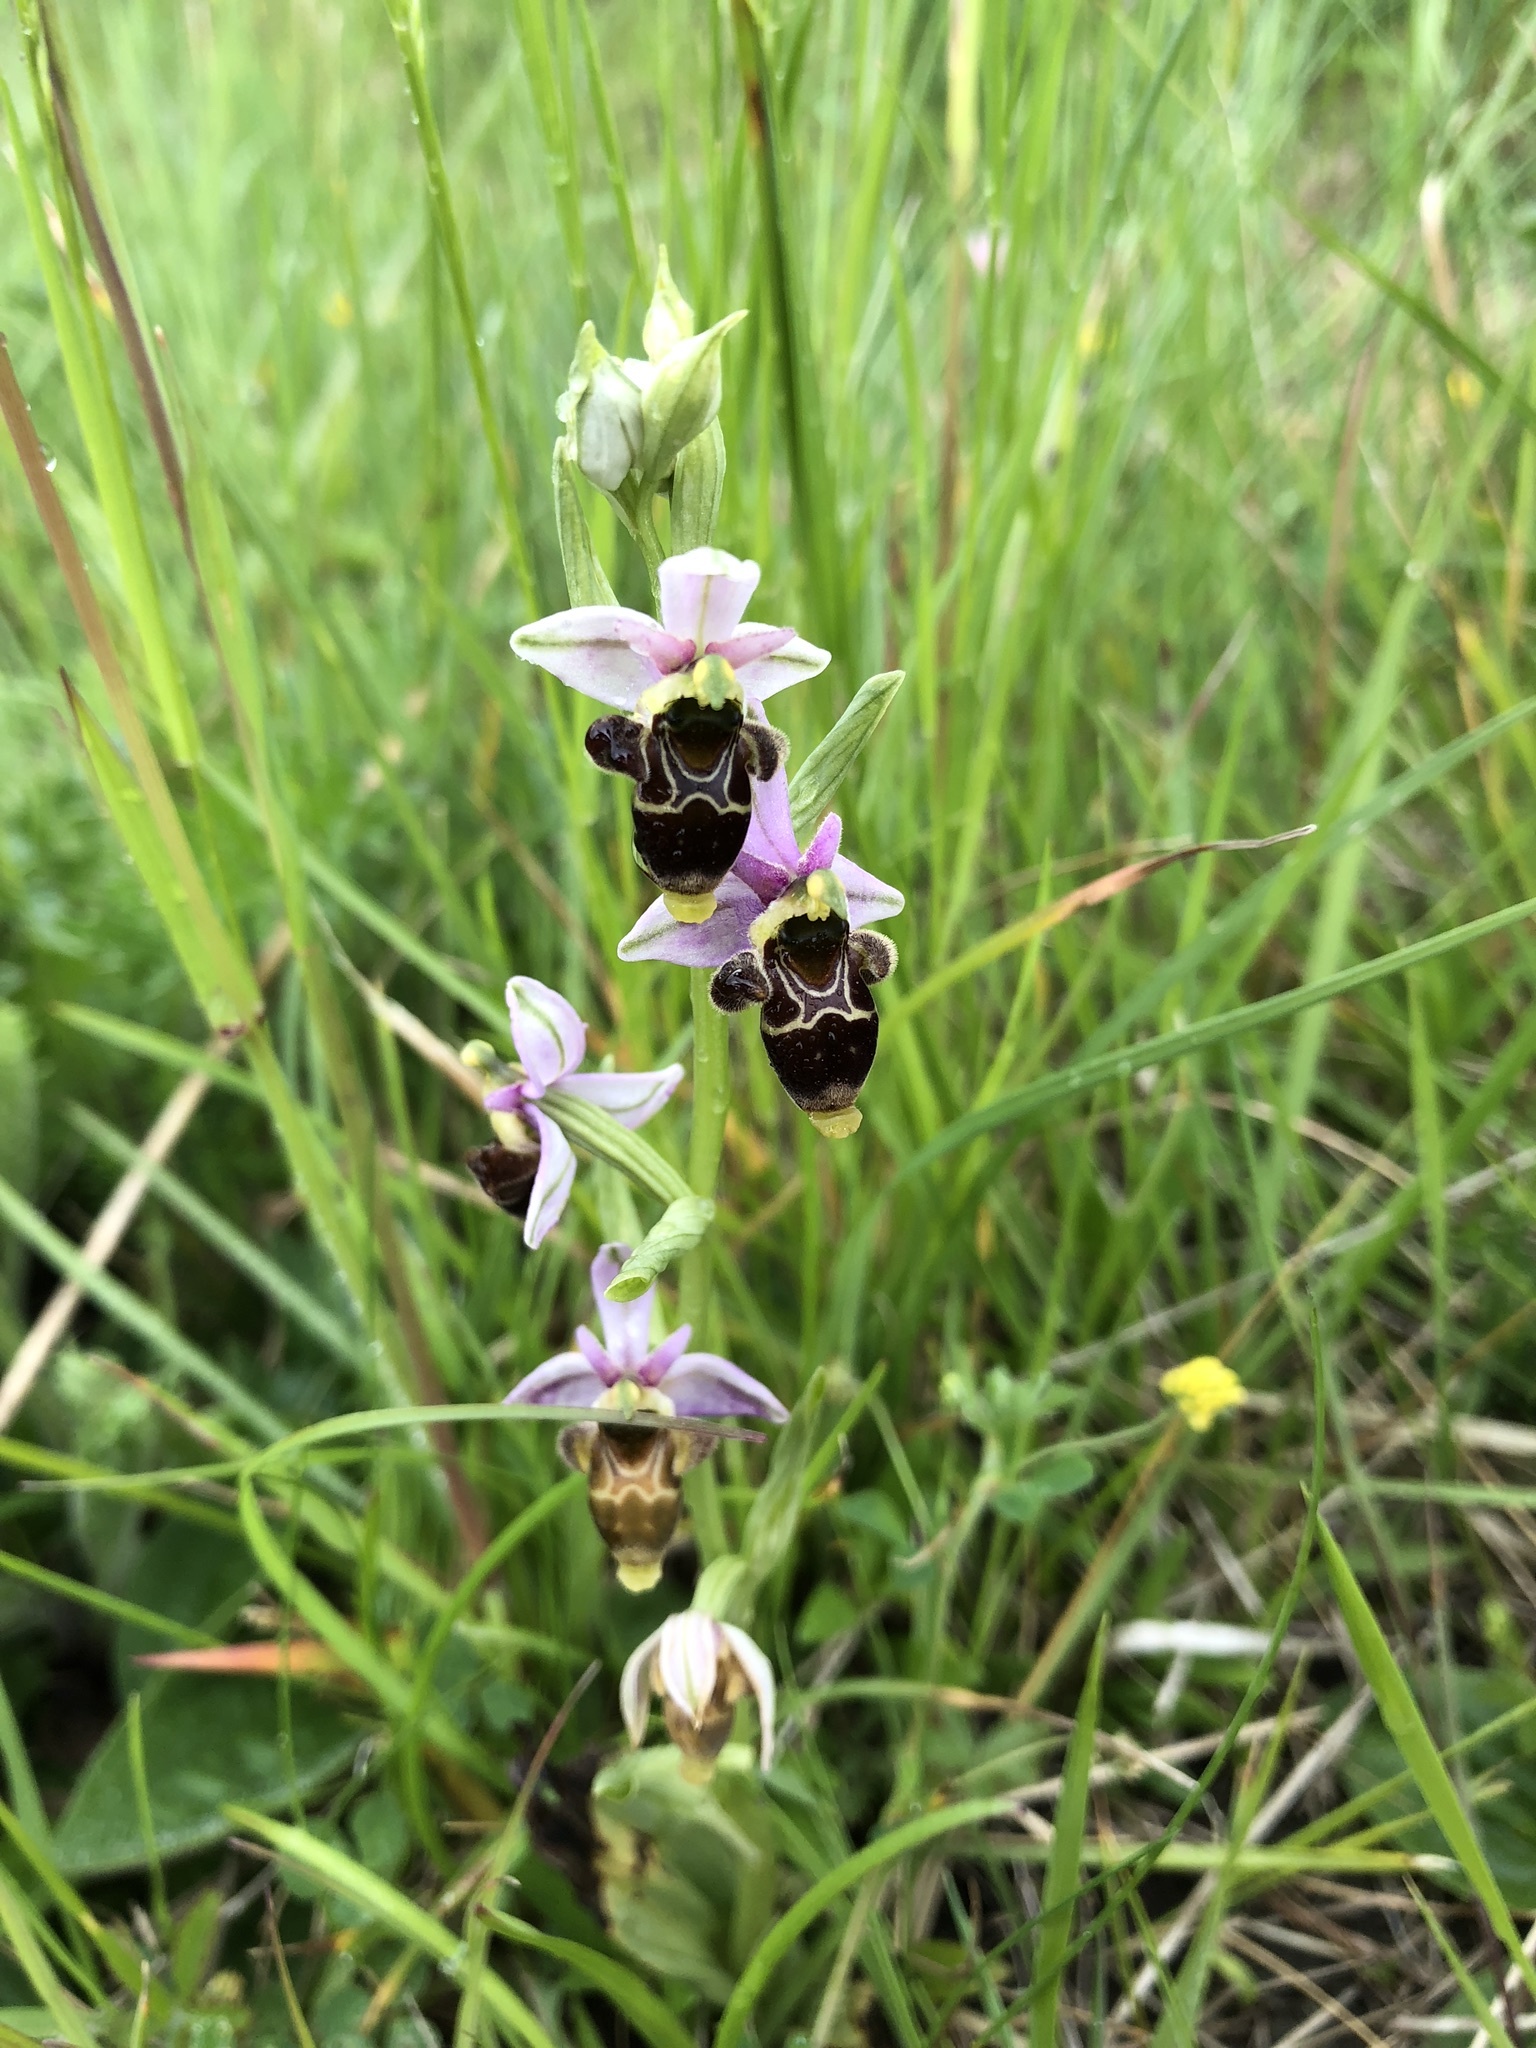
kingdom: Plantae
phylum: Tracheophyta
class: Liliopsida
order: Asparagales
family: Orchidaceae
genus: Ophrys
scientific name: Ophrys scolopax
